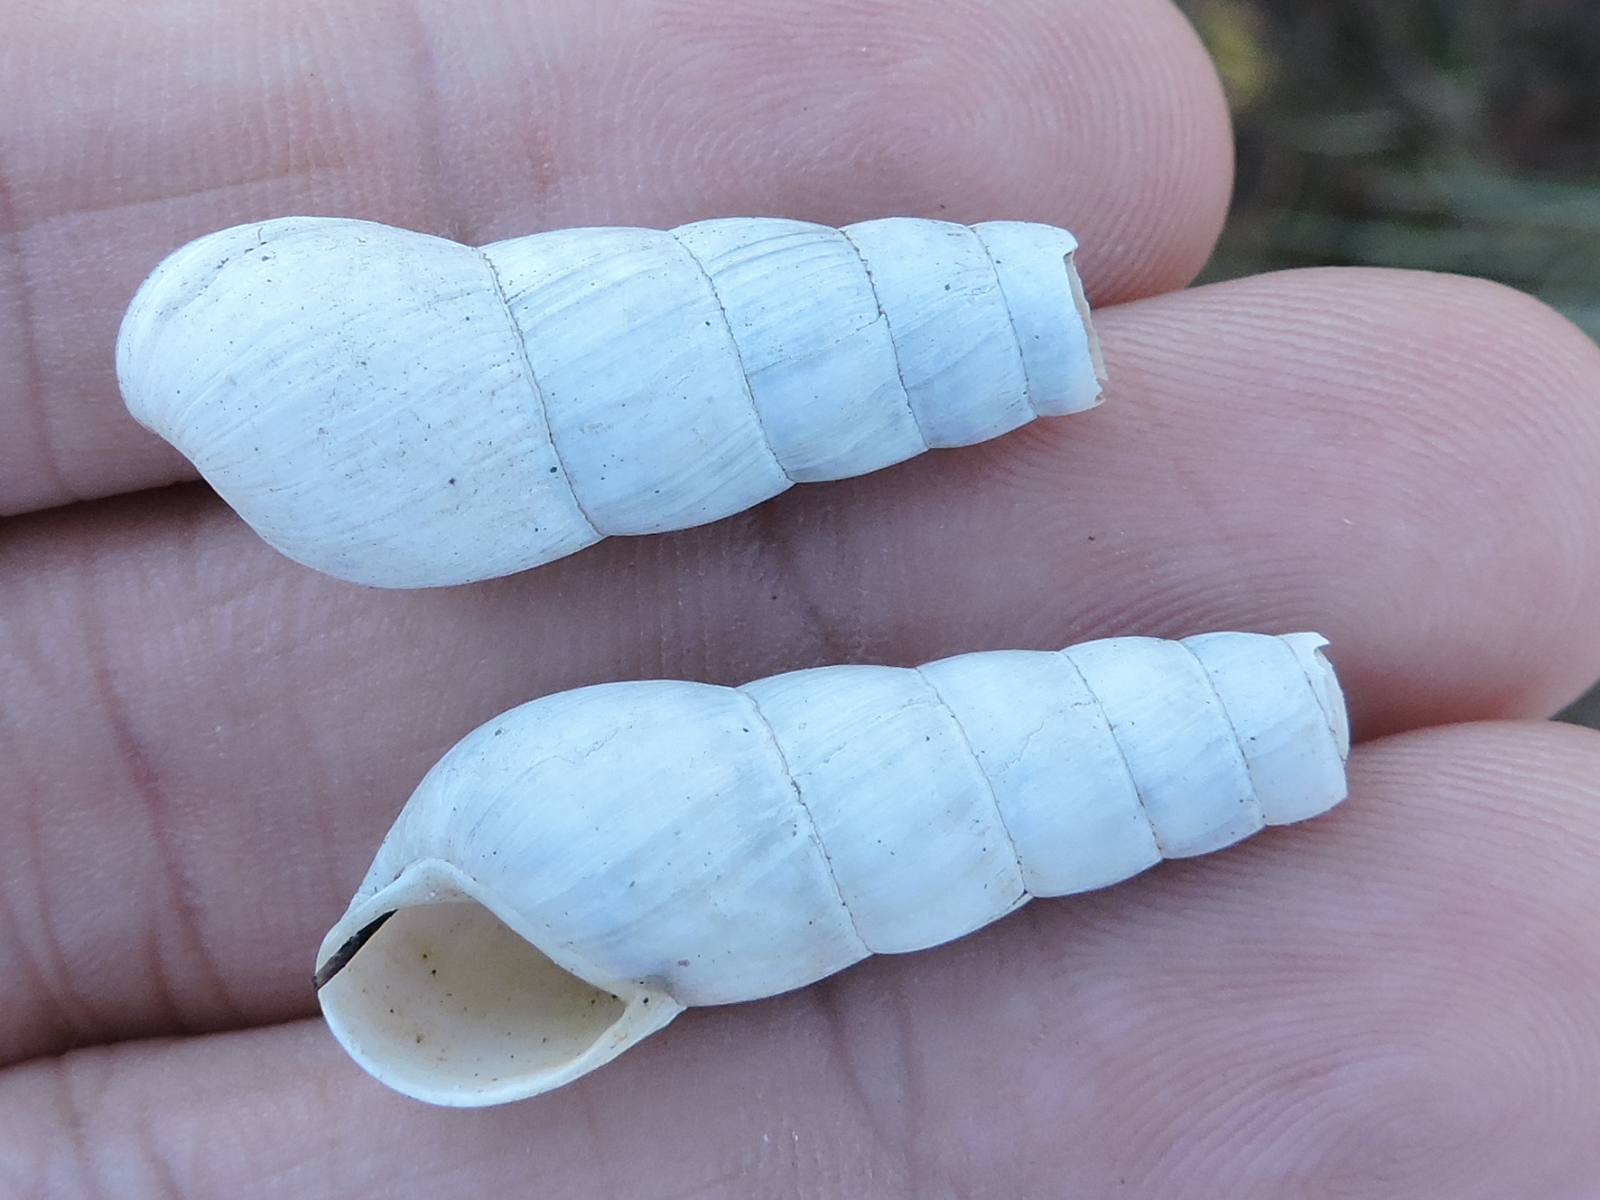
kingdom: Animalia
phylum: Mollusca
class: Gastropoda
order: Stylommatophora
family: Achatinidae
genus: Rumina
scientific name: Rumina decollata
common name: Decollate snail
